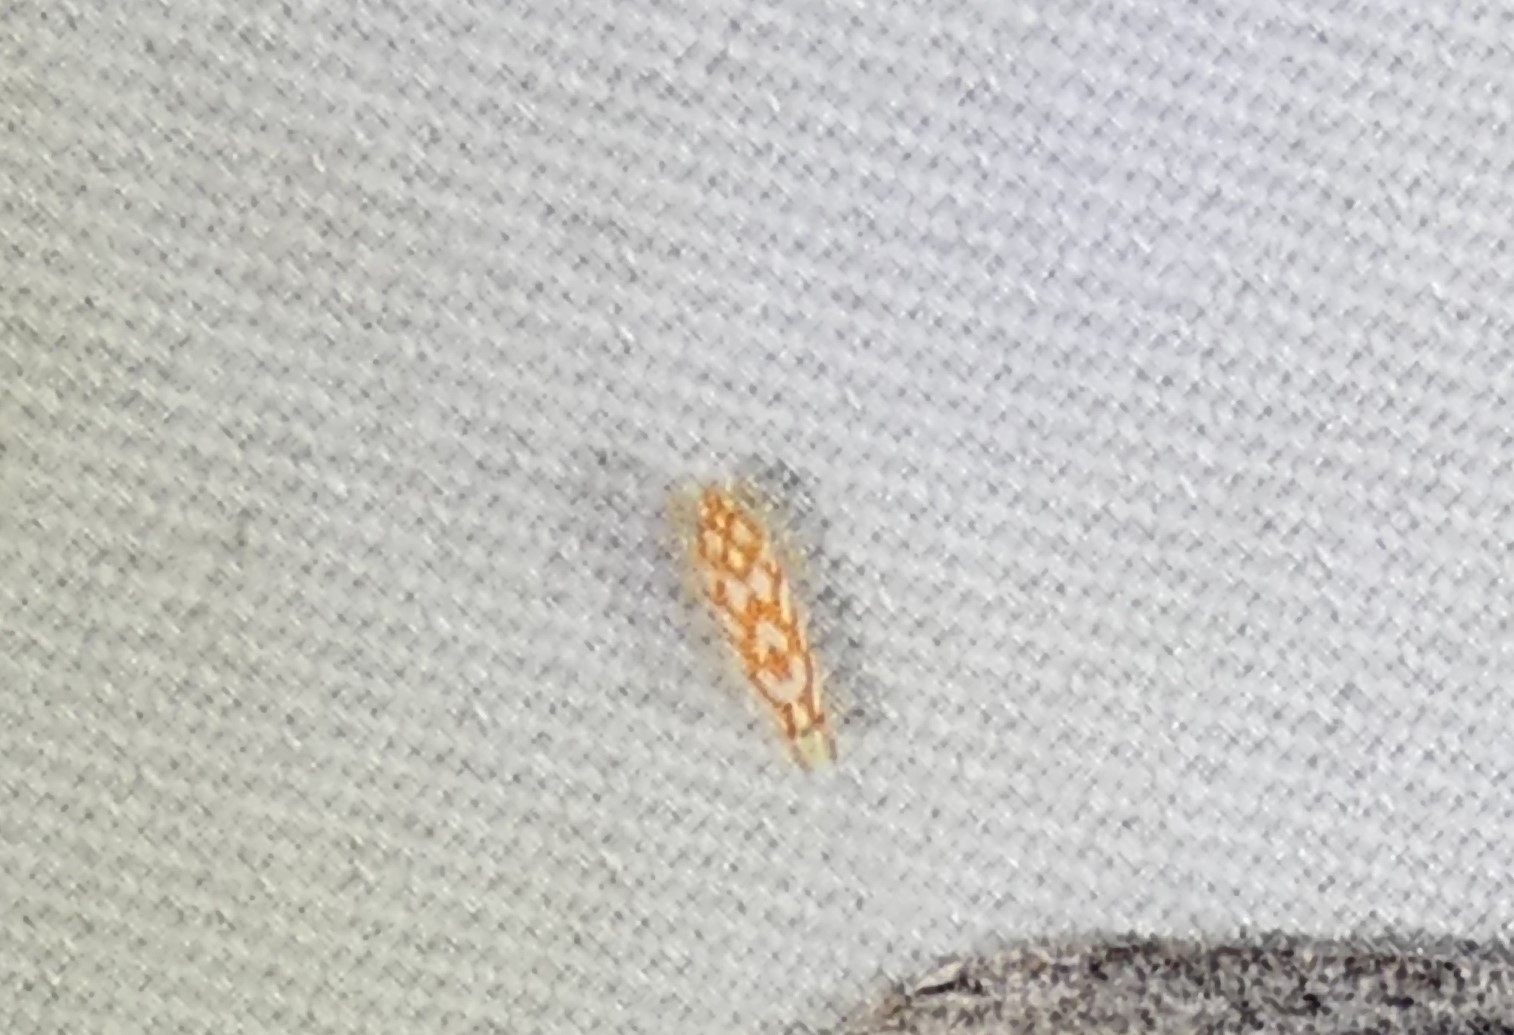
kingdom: Animalia
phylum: Arthropoda
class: Insecta
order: Hemiptera
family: Cicadellidae
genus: Eratoneura
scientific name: Eratoneura comoides
